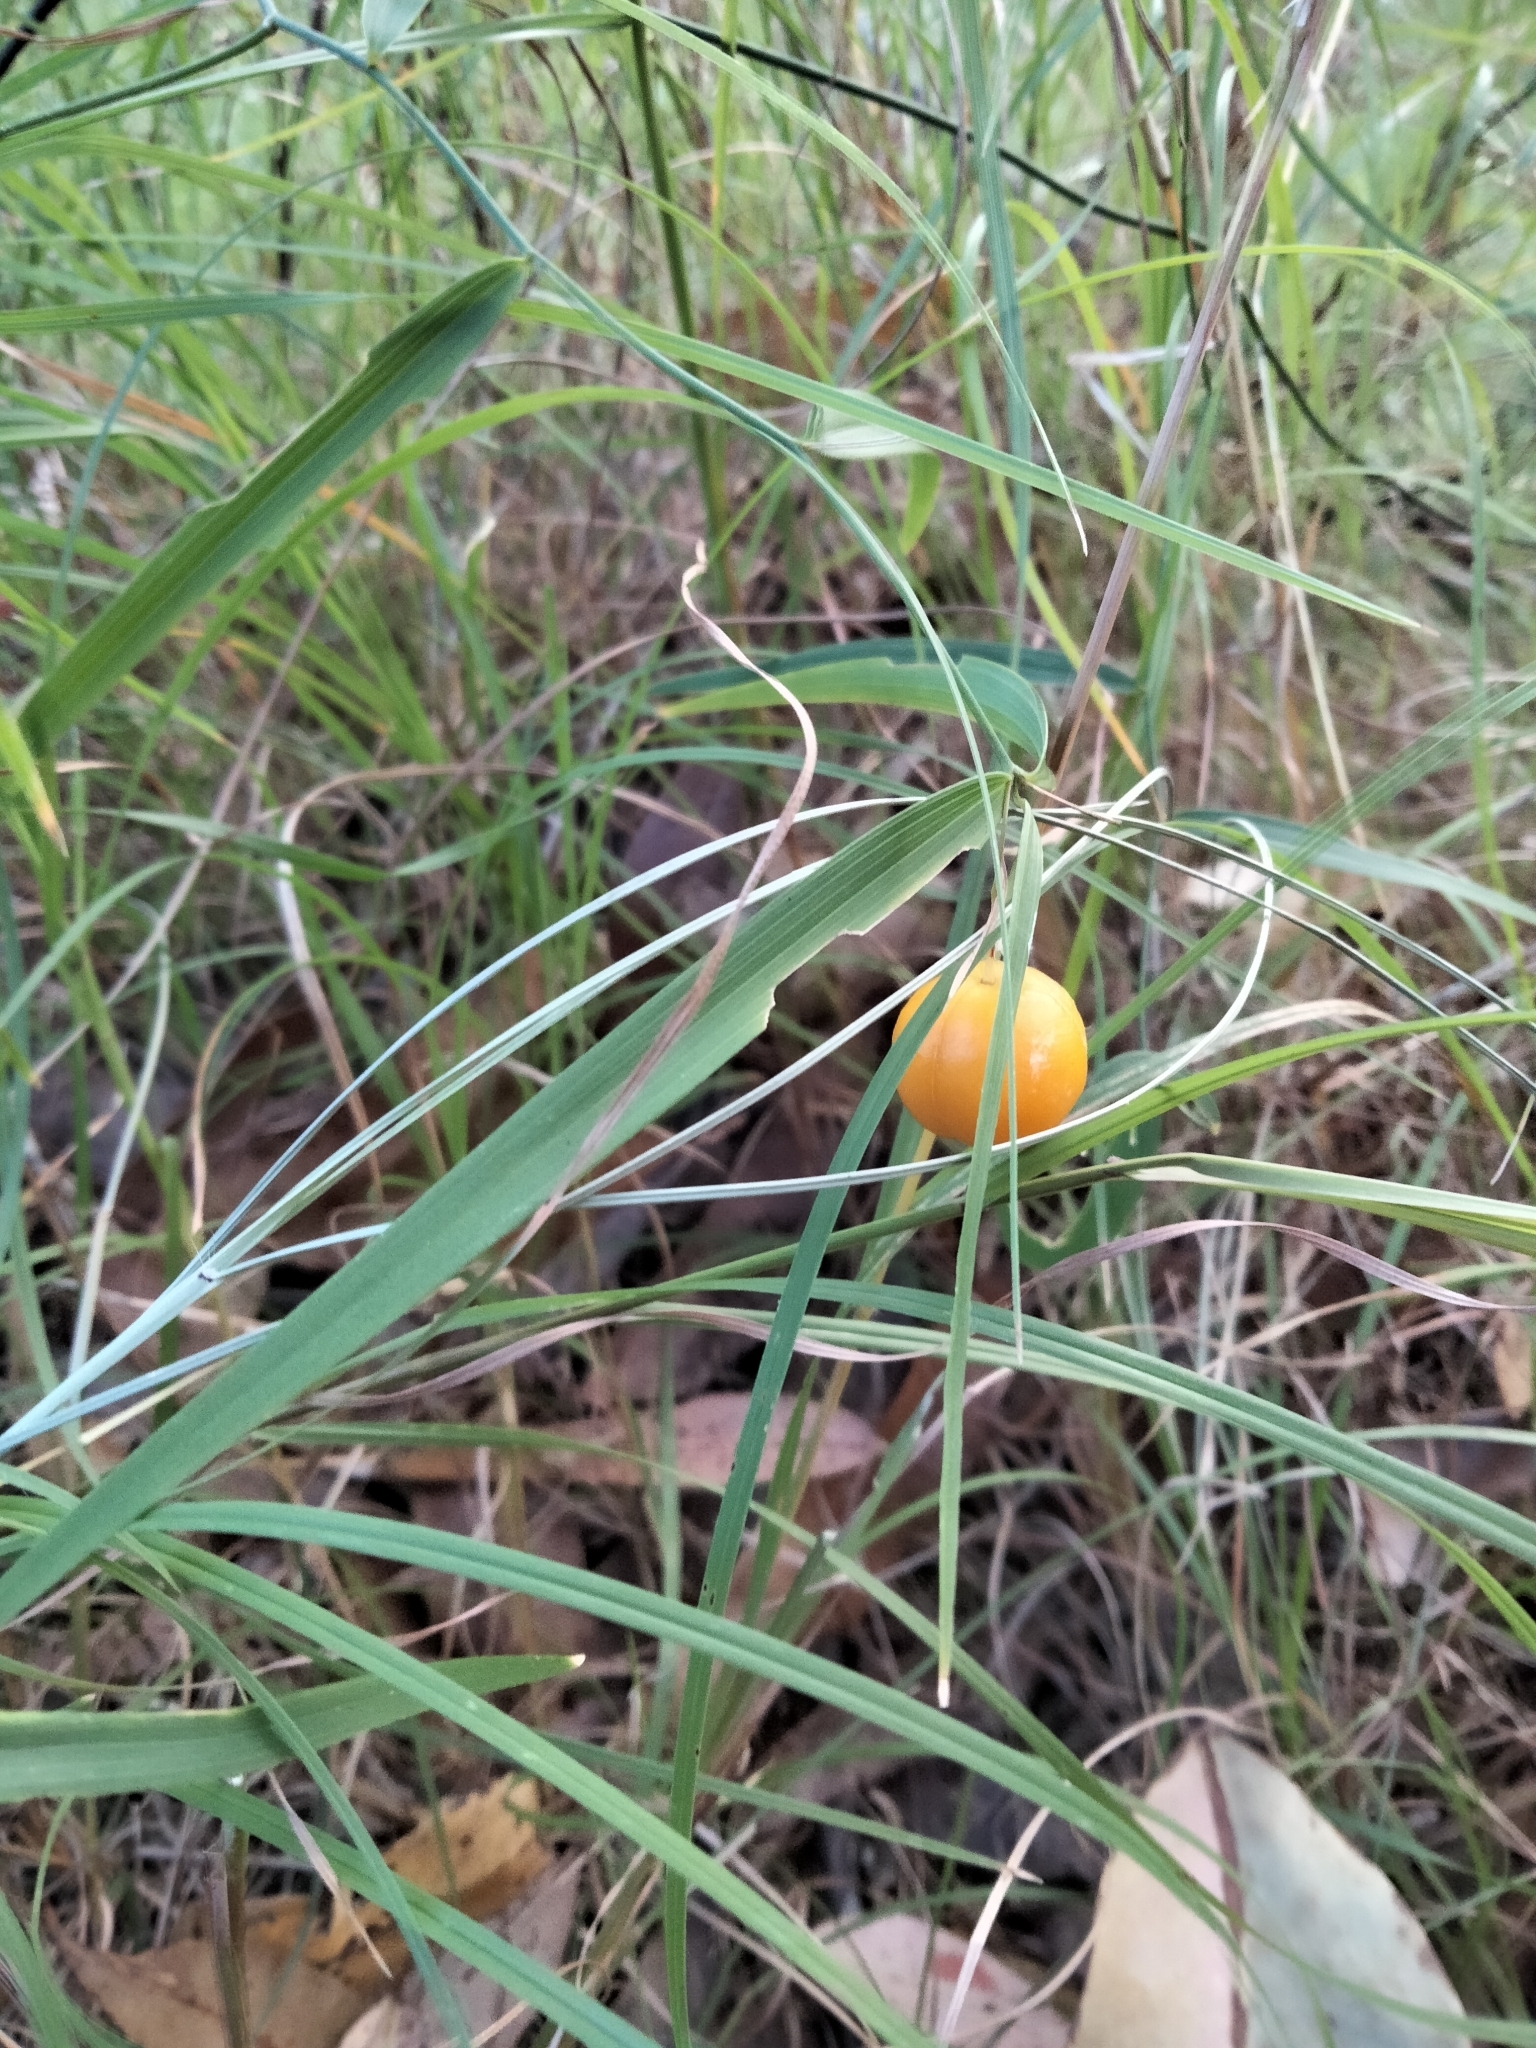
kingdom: Plantae
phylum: Tracheophyta
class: Liliopsida
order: Asparagales
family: Asparagaceae
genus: Eustrephus
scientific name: Eustrephus latifolius
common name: Orangevine
